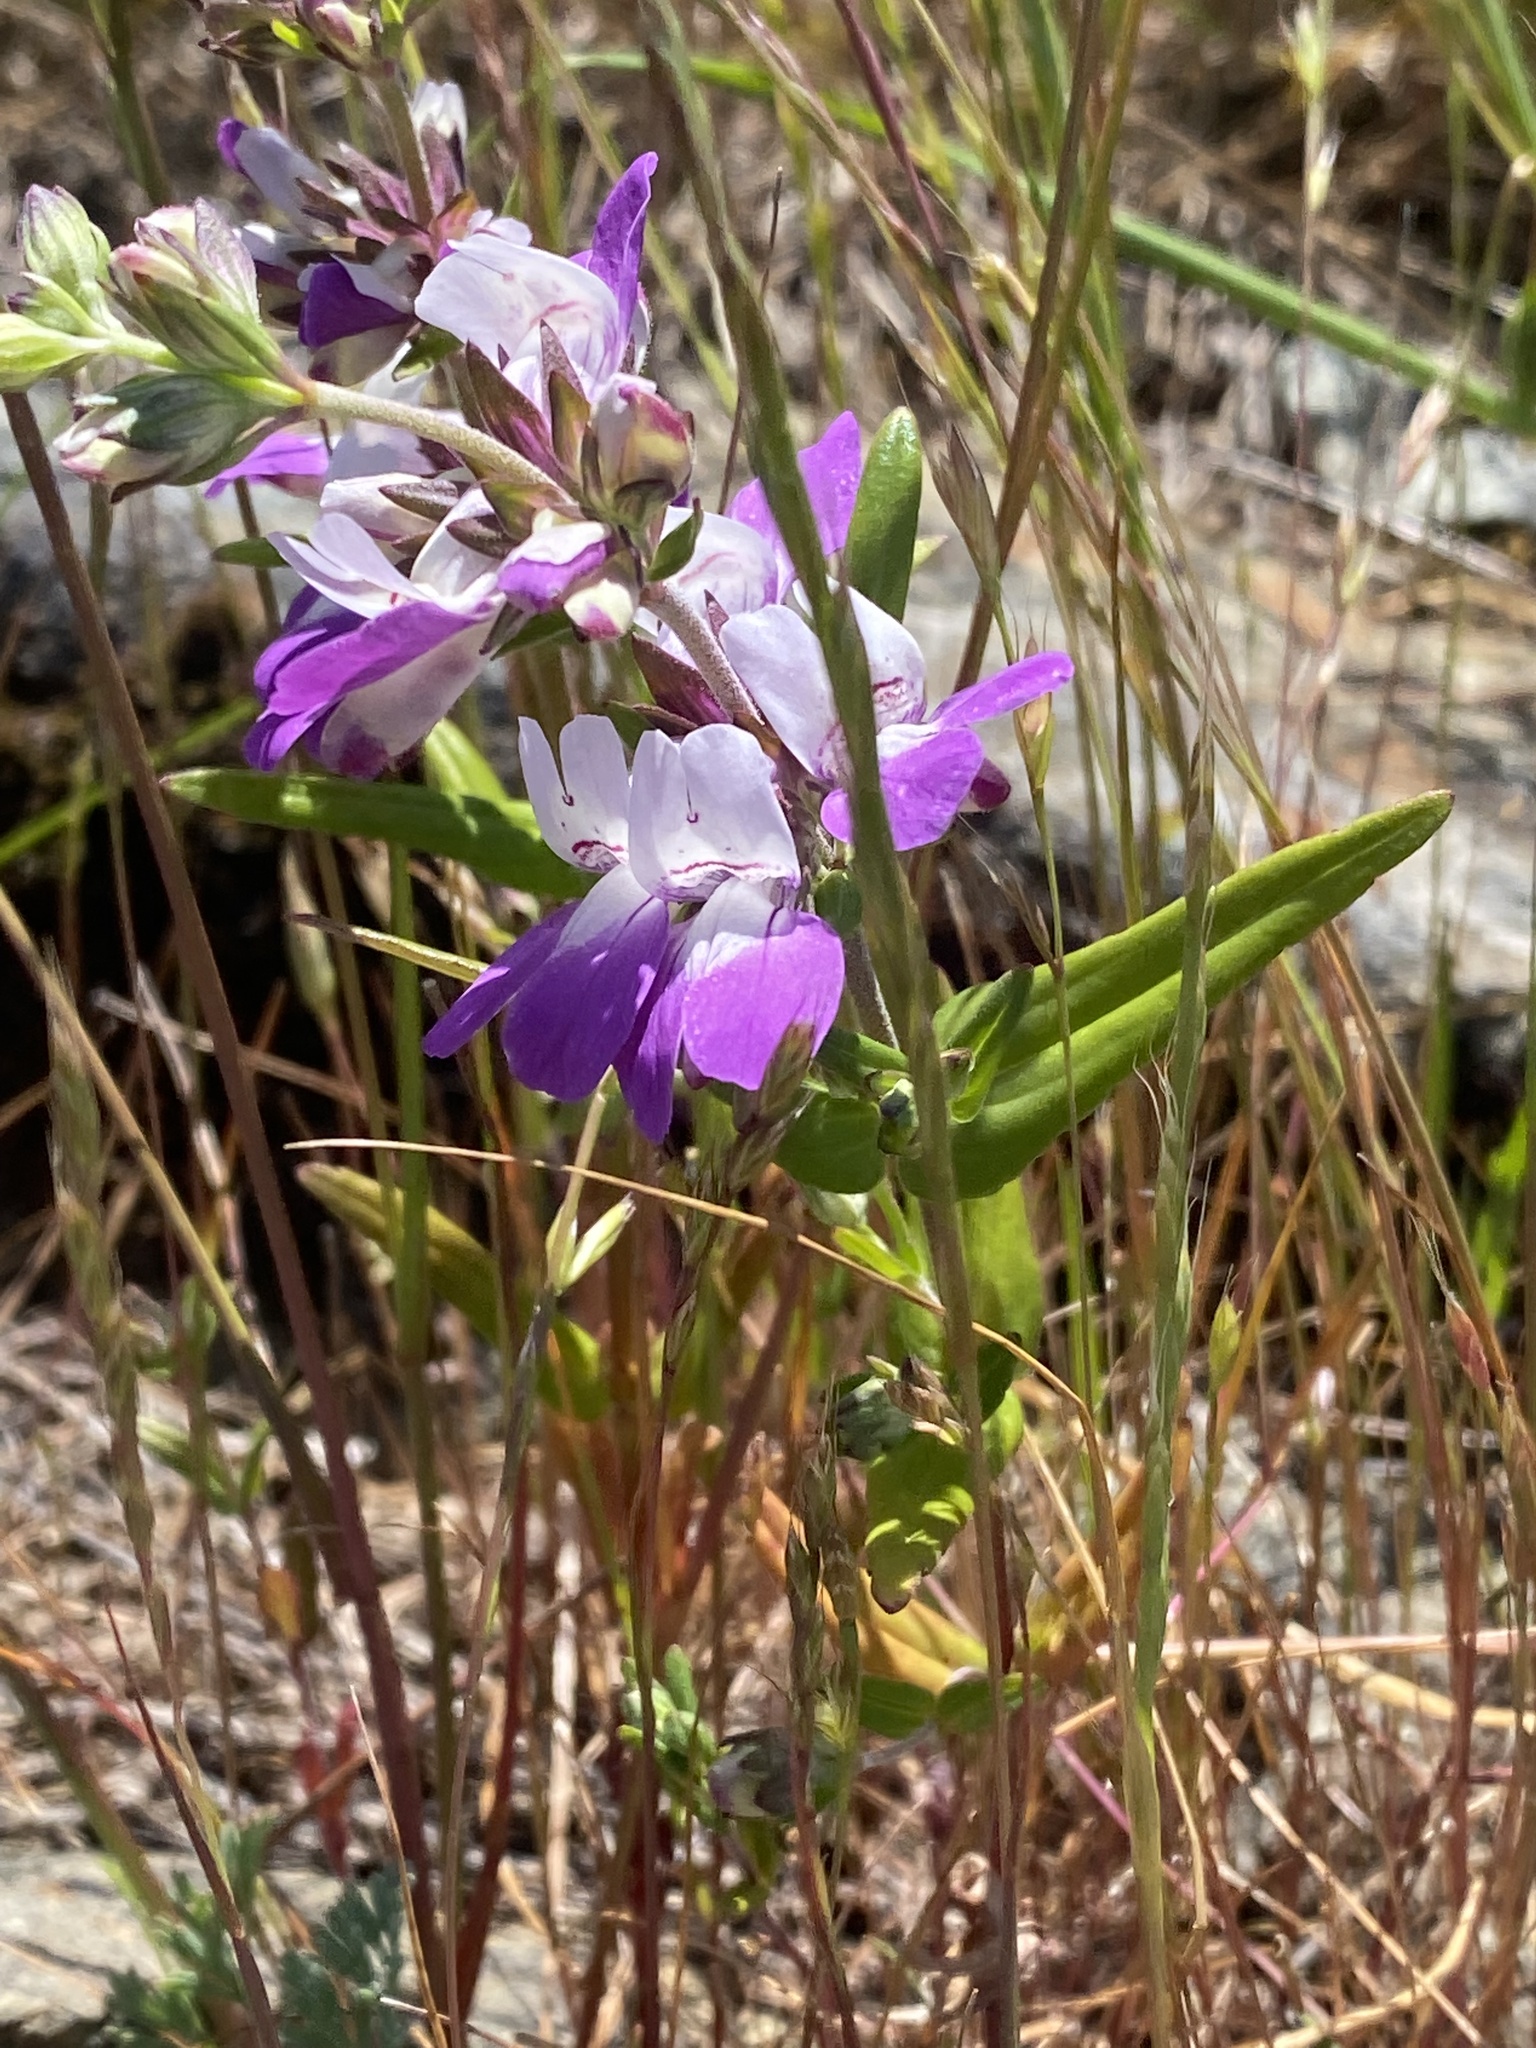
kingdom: Plantae
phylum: Tracheophyta
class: Magnoliopsida
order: Lamiales
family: Plantaginaceae
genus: Collinsia
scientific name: Collinsia heterophylla
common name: Chinese-houses
